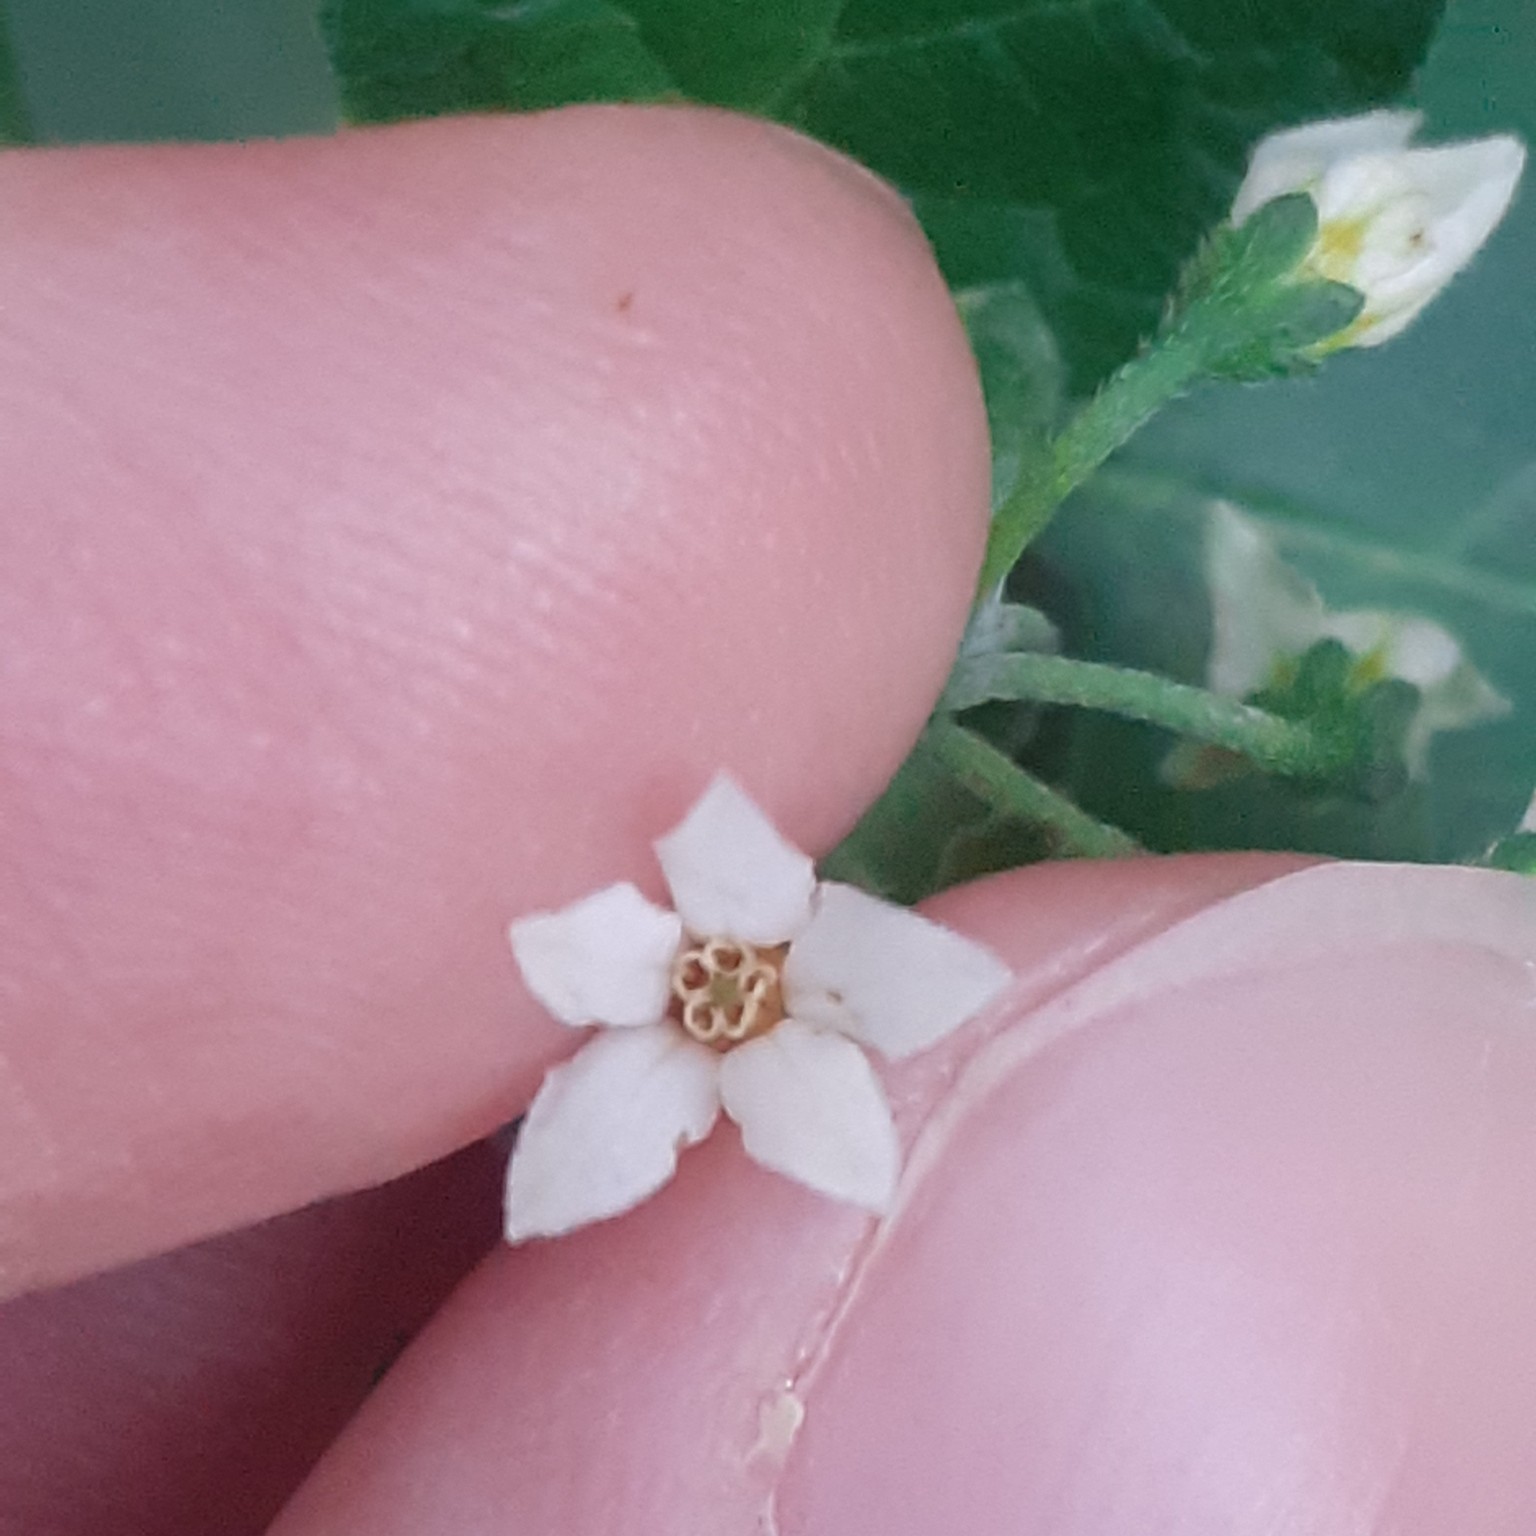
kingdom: Plantae
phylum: Tracheophyta
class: Magnoliopsida
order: Solanales
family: Solanaceae
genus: Solanum
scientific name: Solanum nigrum
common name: Black nightshade
